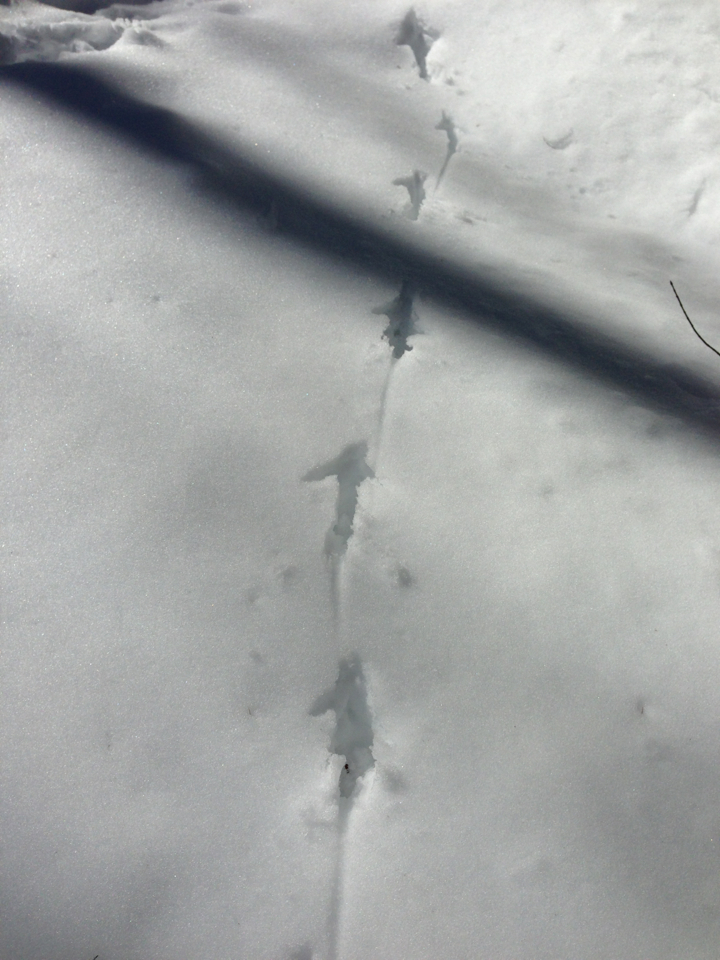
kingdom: Animalia
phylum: Chordata
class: Aves
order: Galliformes
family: Phasianidae
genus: Meleagris
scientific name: Meleagris gallopavo
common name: Wild turkey
